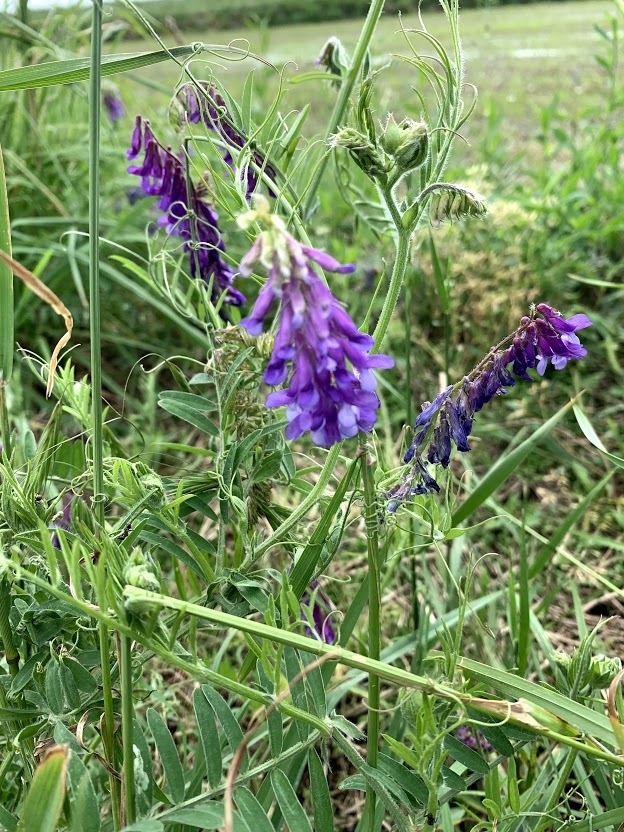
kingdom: Plantae
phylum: Tracheophyta
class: Magnoliopsida
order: Fabales
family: Fabaceae
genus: Vicia
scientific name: Vicia villosa
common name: Fodder vetch
